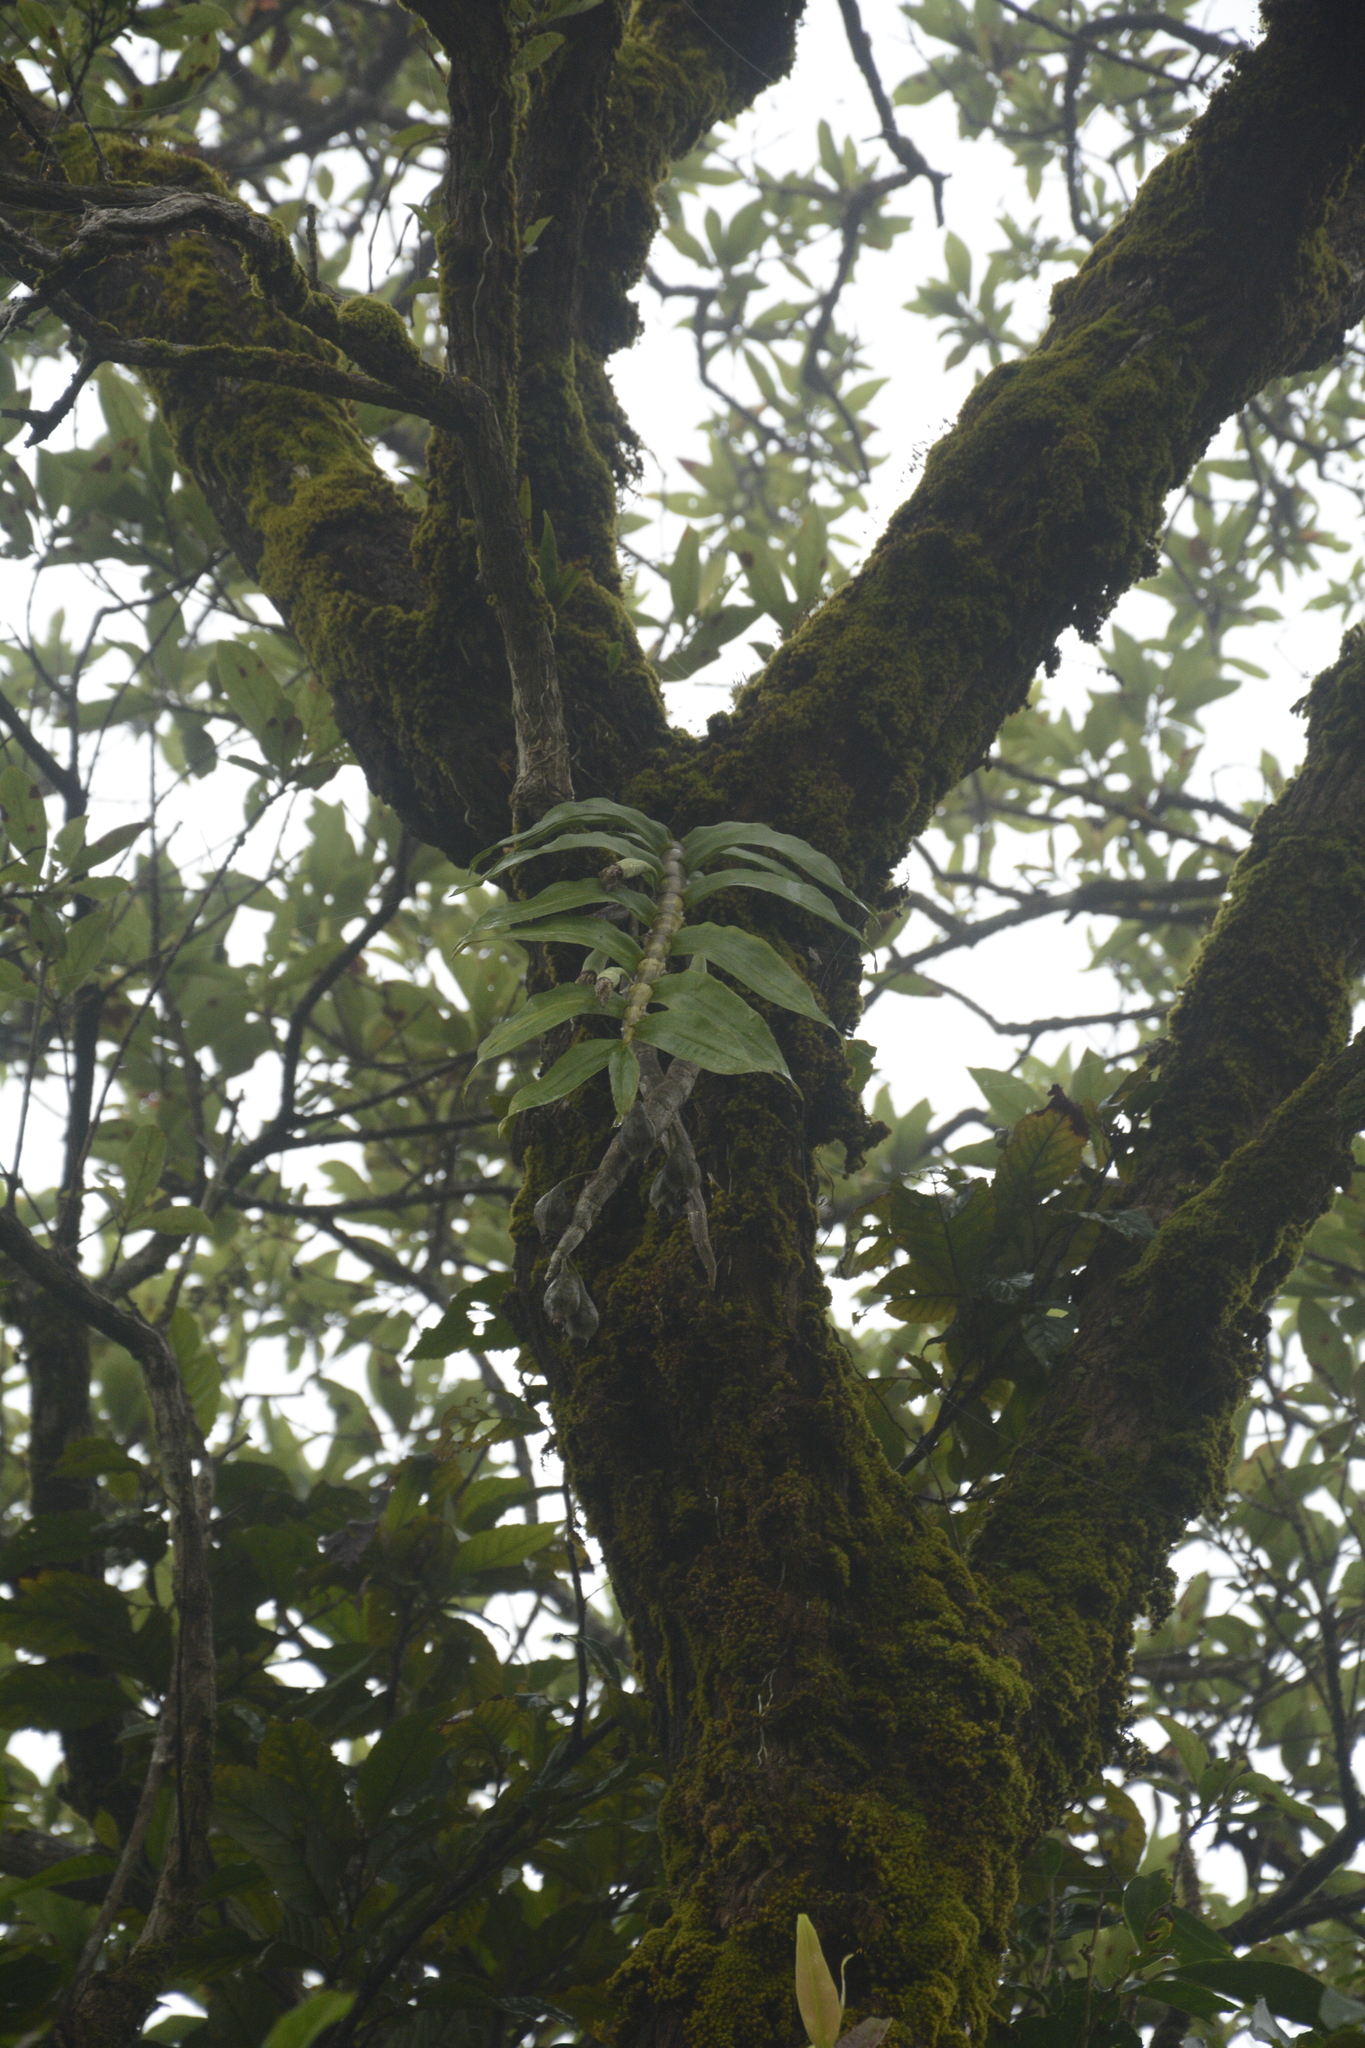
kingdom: Plantae
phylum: Tracheophyta
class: Liliopsida
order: Asparagales
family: Orchidaceae
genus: Dendrobium
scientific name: Dendrobium aqueum
